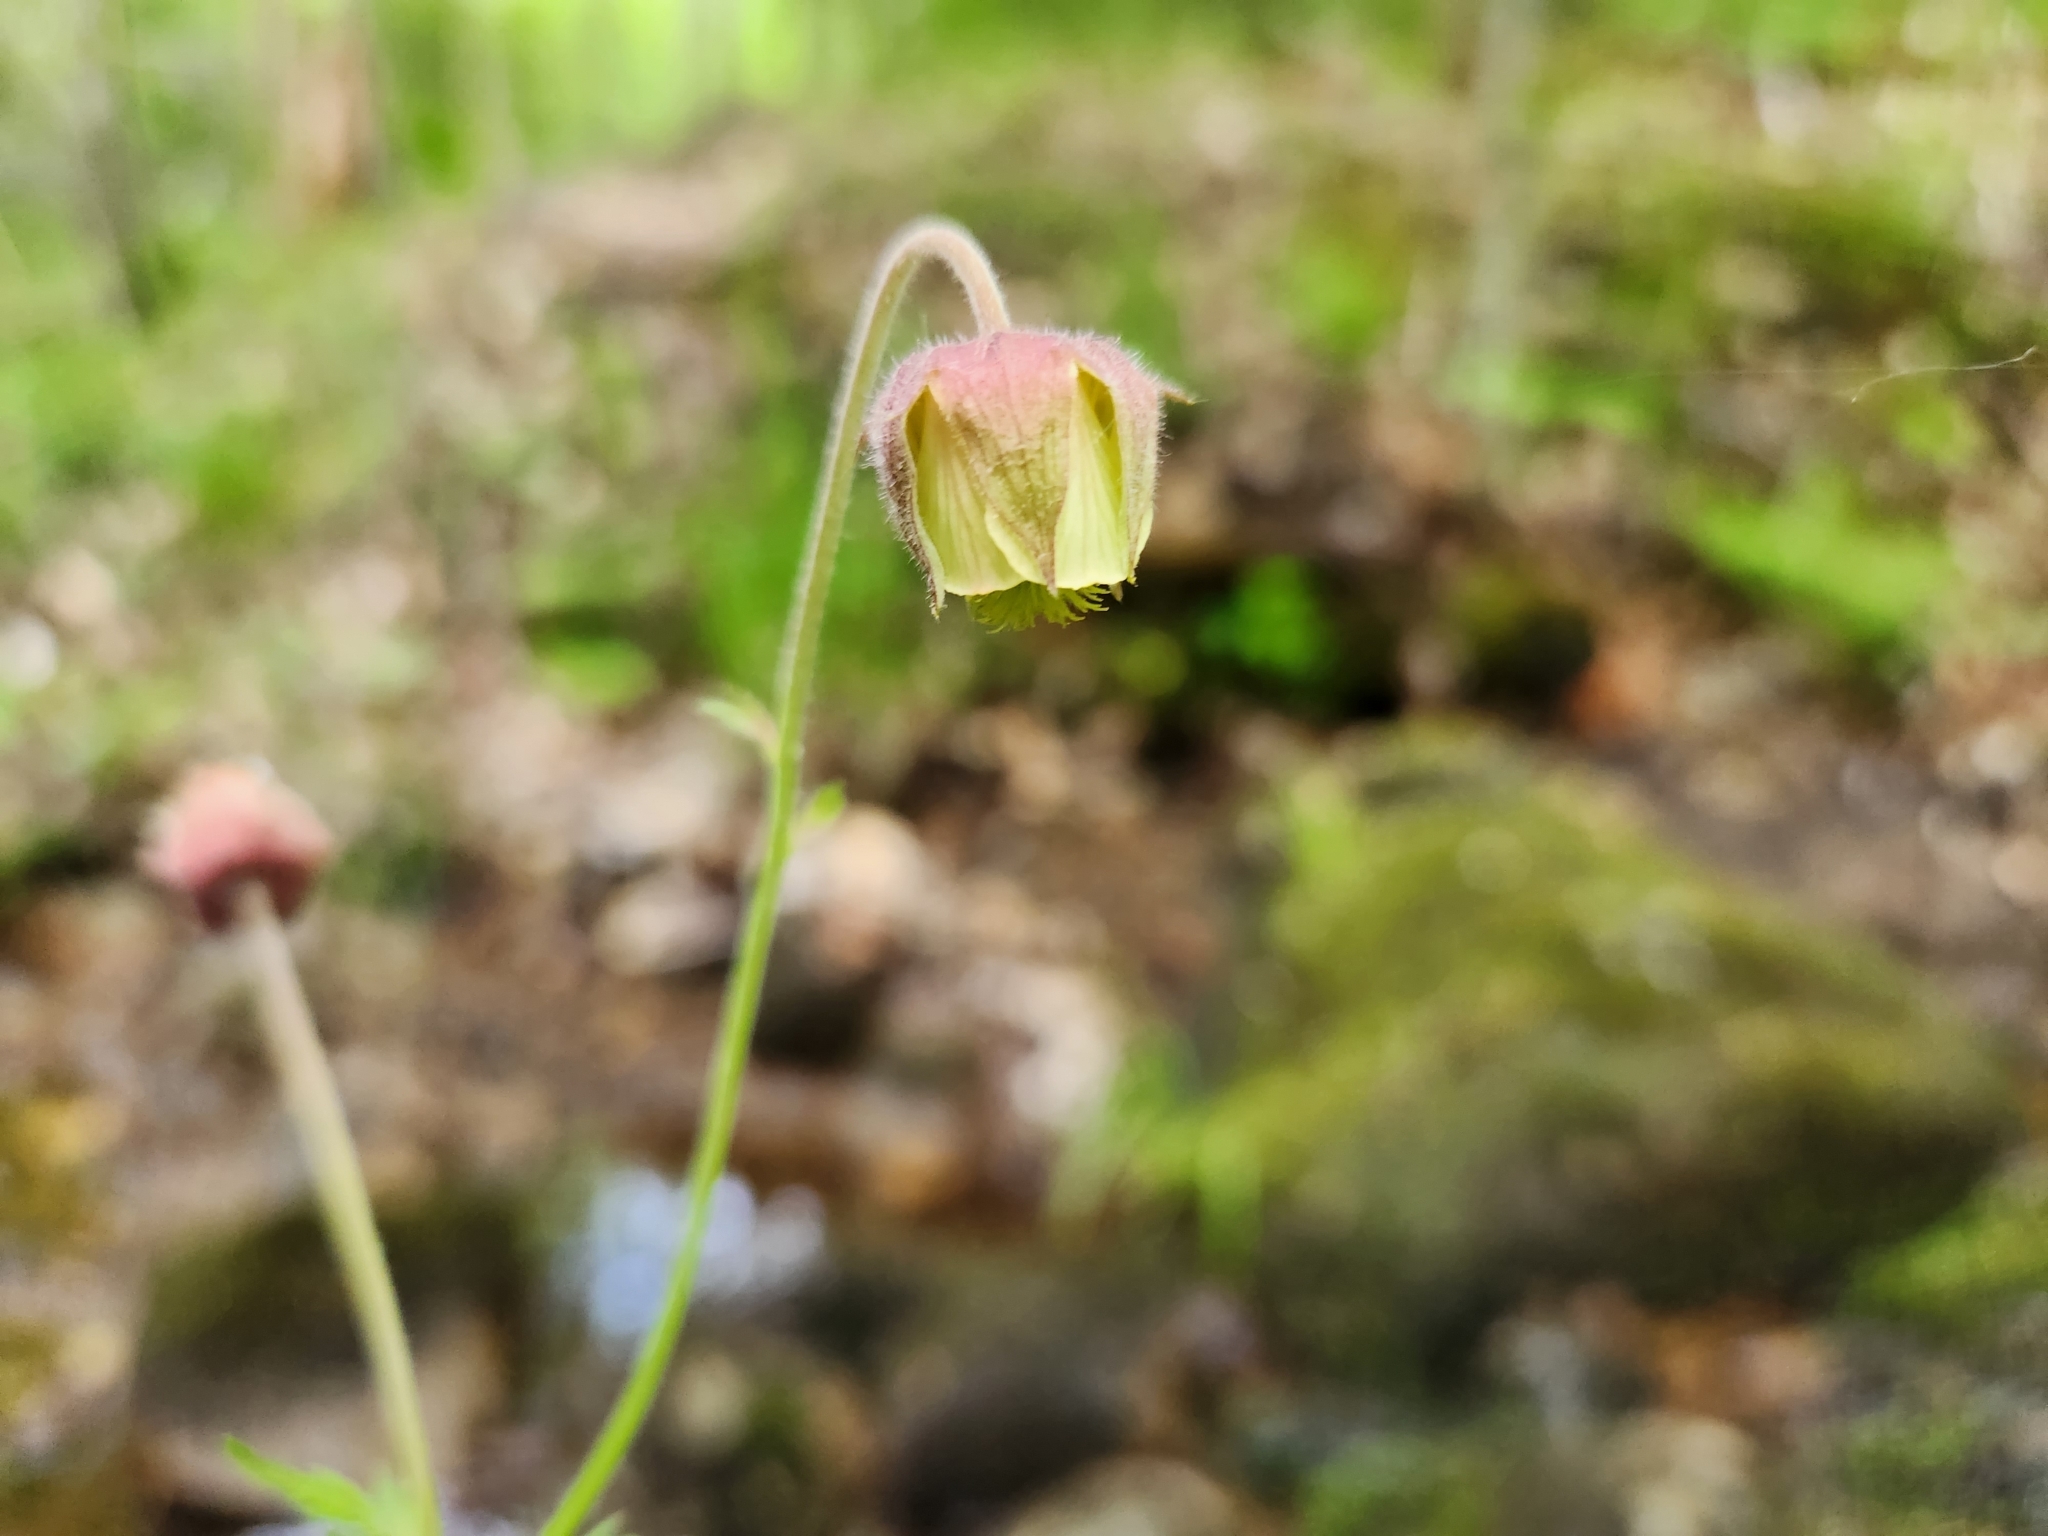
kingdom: Plantae
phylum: Tracheophyta
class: Magnoliopsida
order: Rosales
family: Rosaceae
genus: Geum
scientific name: Geum rivale
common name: Water avens
